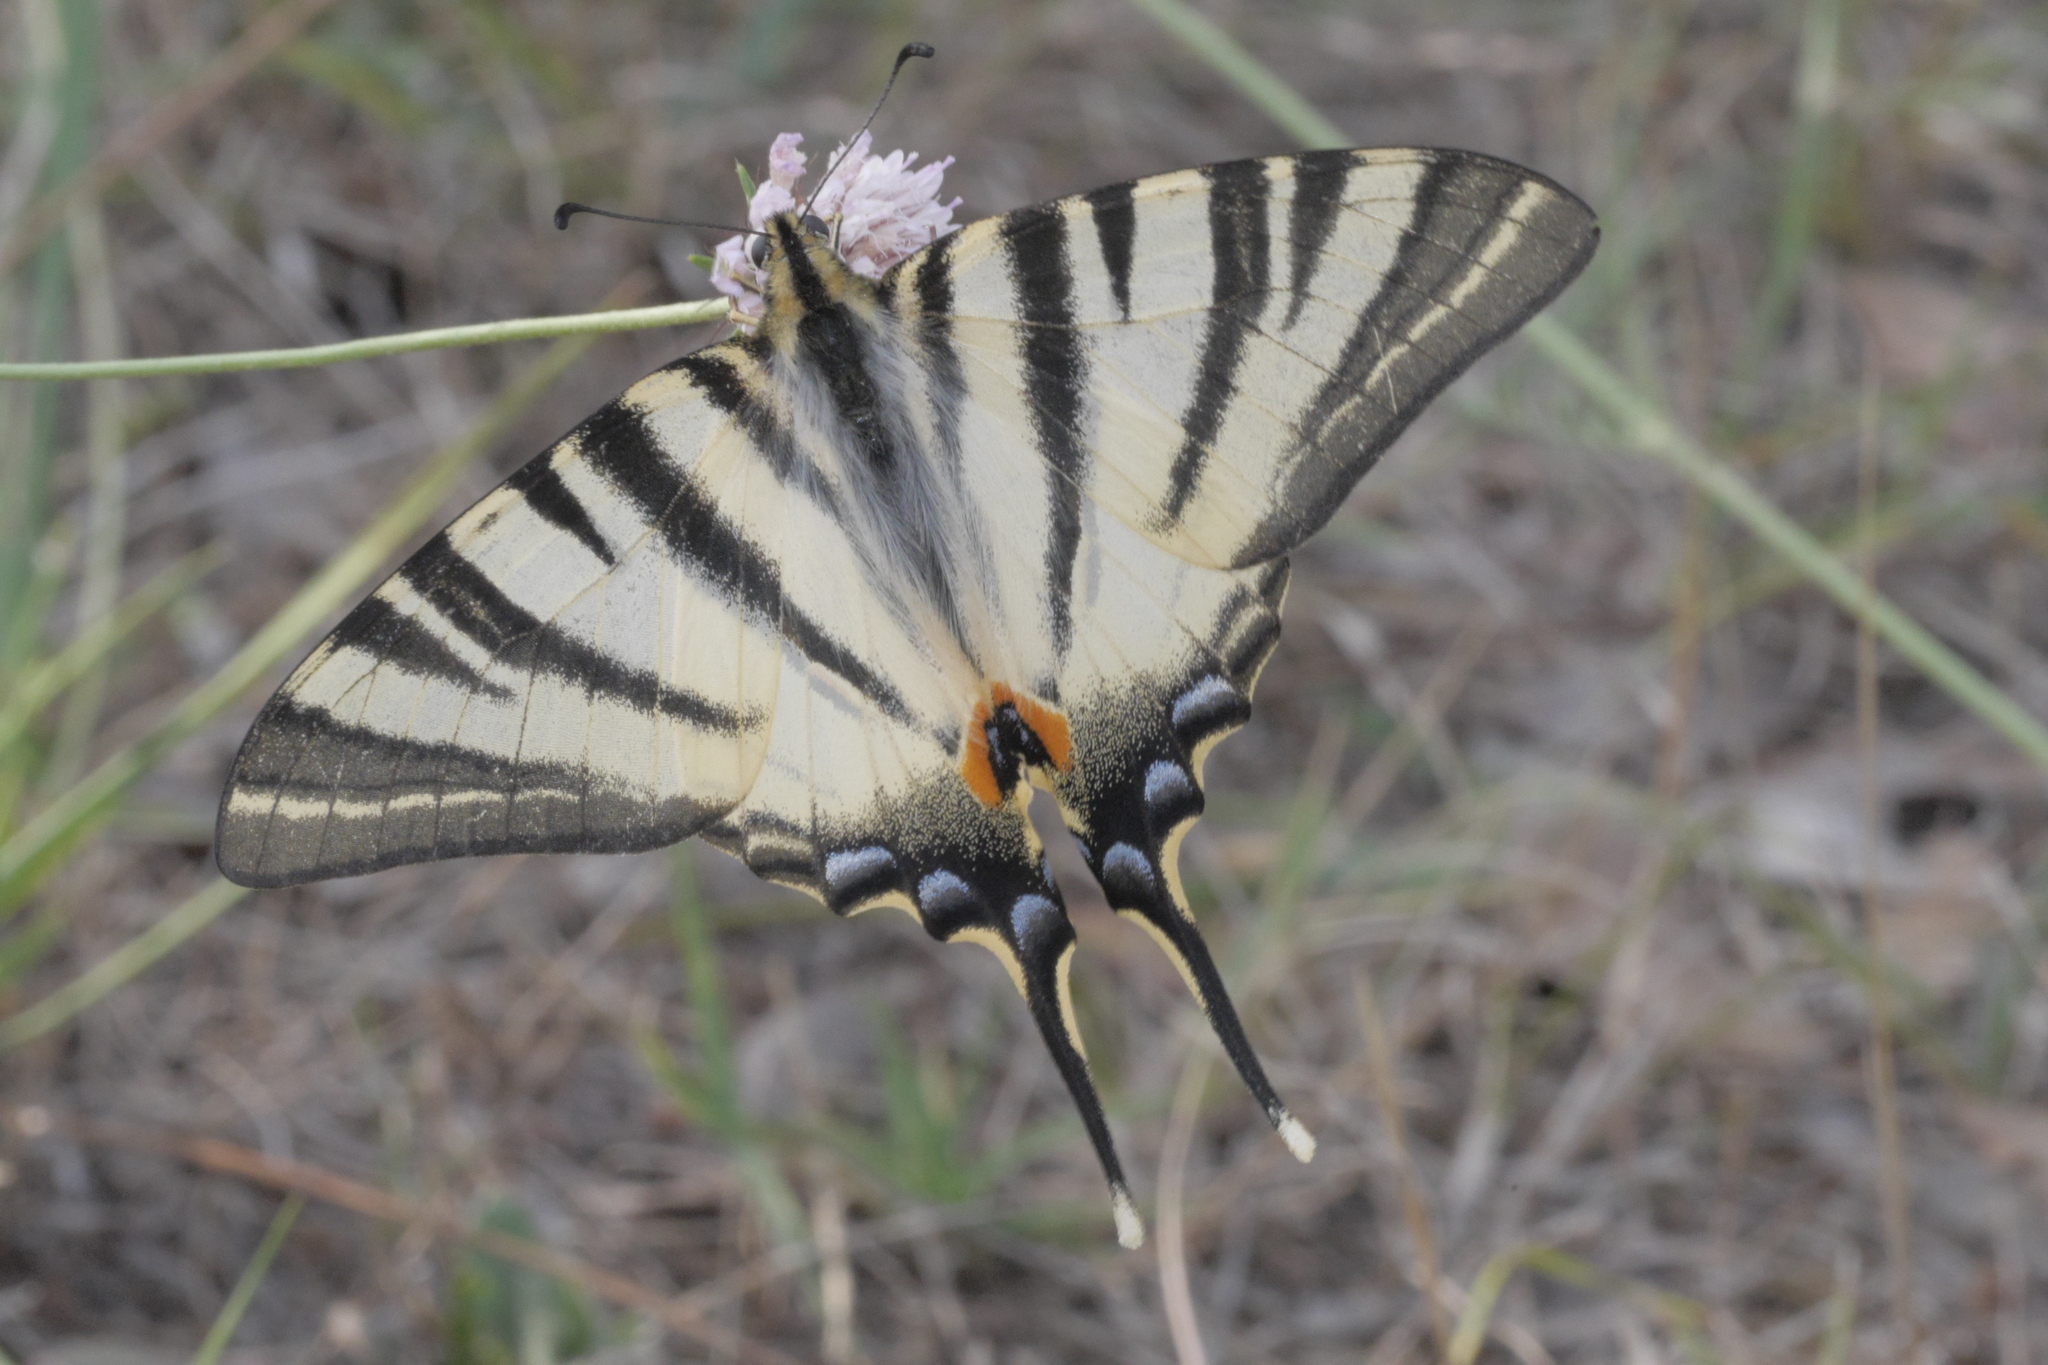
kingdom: Animalia
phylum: Arthropoda
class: Insecta
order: Lepidoptera
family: Papilionidae
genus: Iphiclides
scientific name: Iphiclides podalirius
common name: Scarce swallowtail
